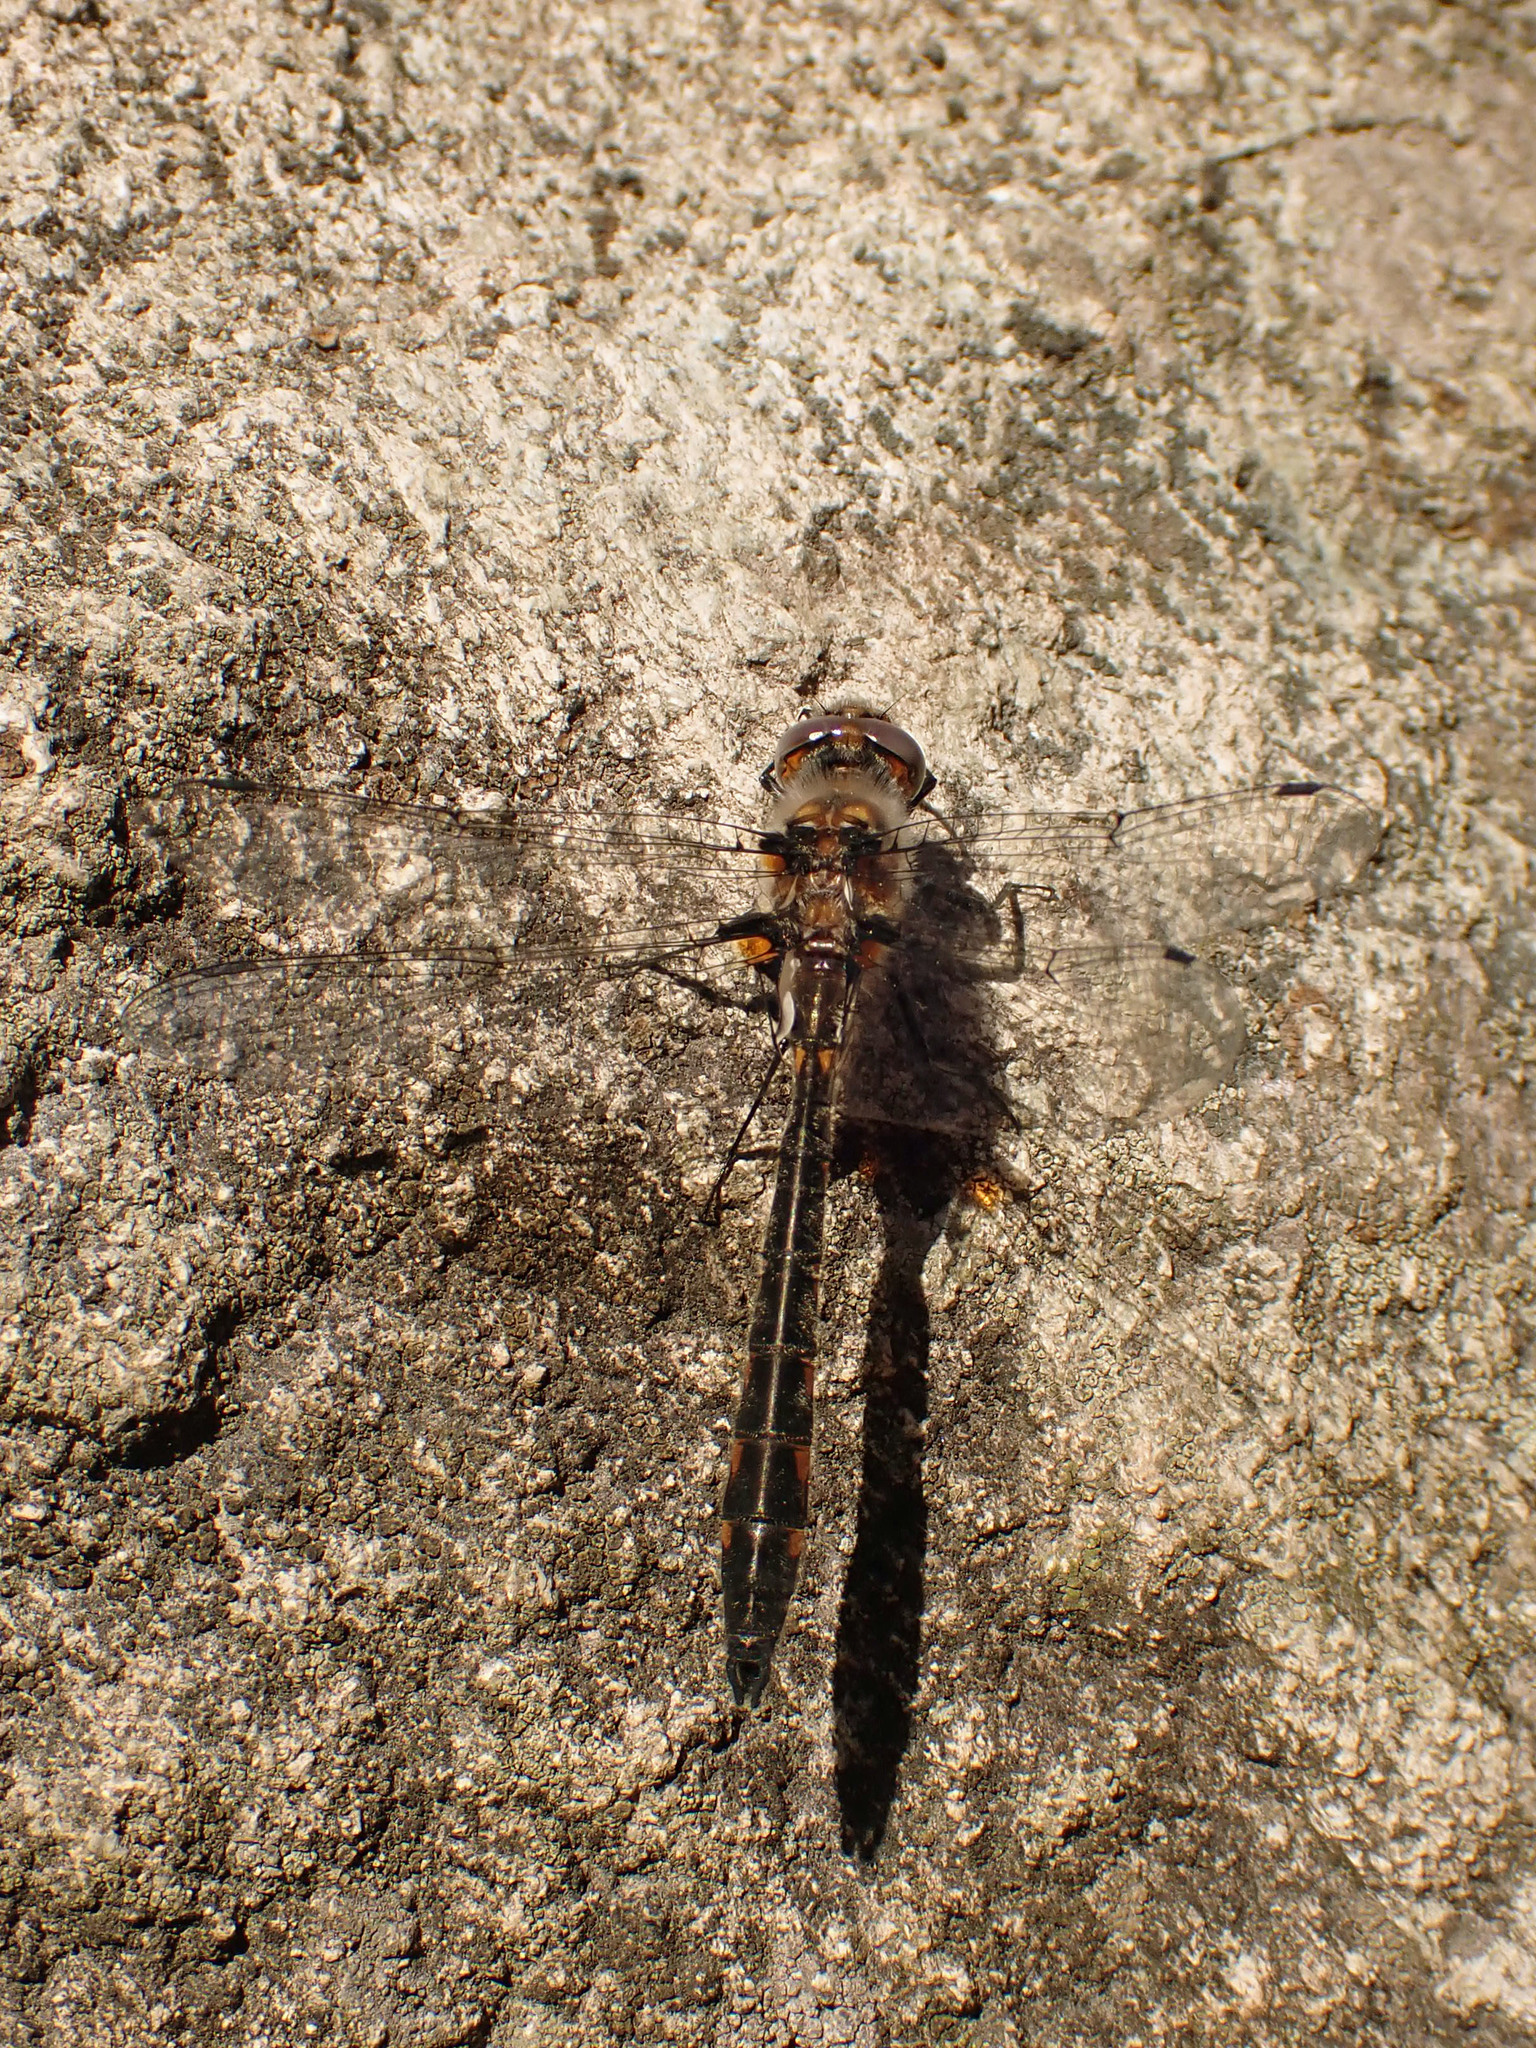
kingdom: Animalia
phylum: Arthropoda
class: Insecta
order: Odonata
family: Corduliidae
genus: Helocordulia
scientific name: Helocordulia uhleri
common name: Uhler's sundragon
